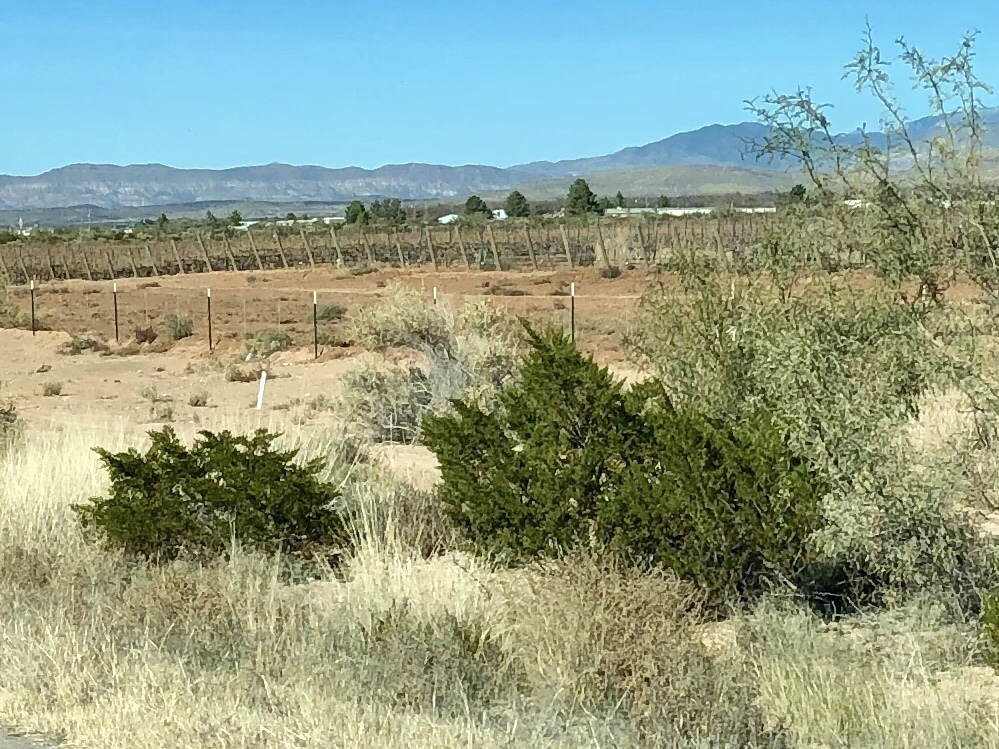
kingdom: Plantae
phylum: Tracheophyta
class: Magnoliopsida
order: Zygophyllales
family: Zygophyllaceae
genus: Larrea
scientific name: Larrea tridentata
